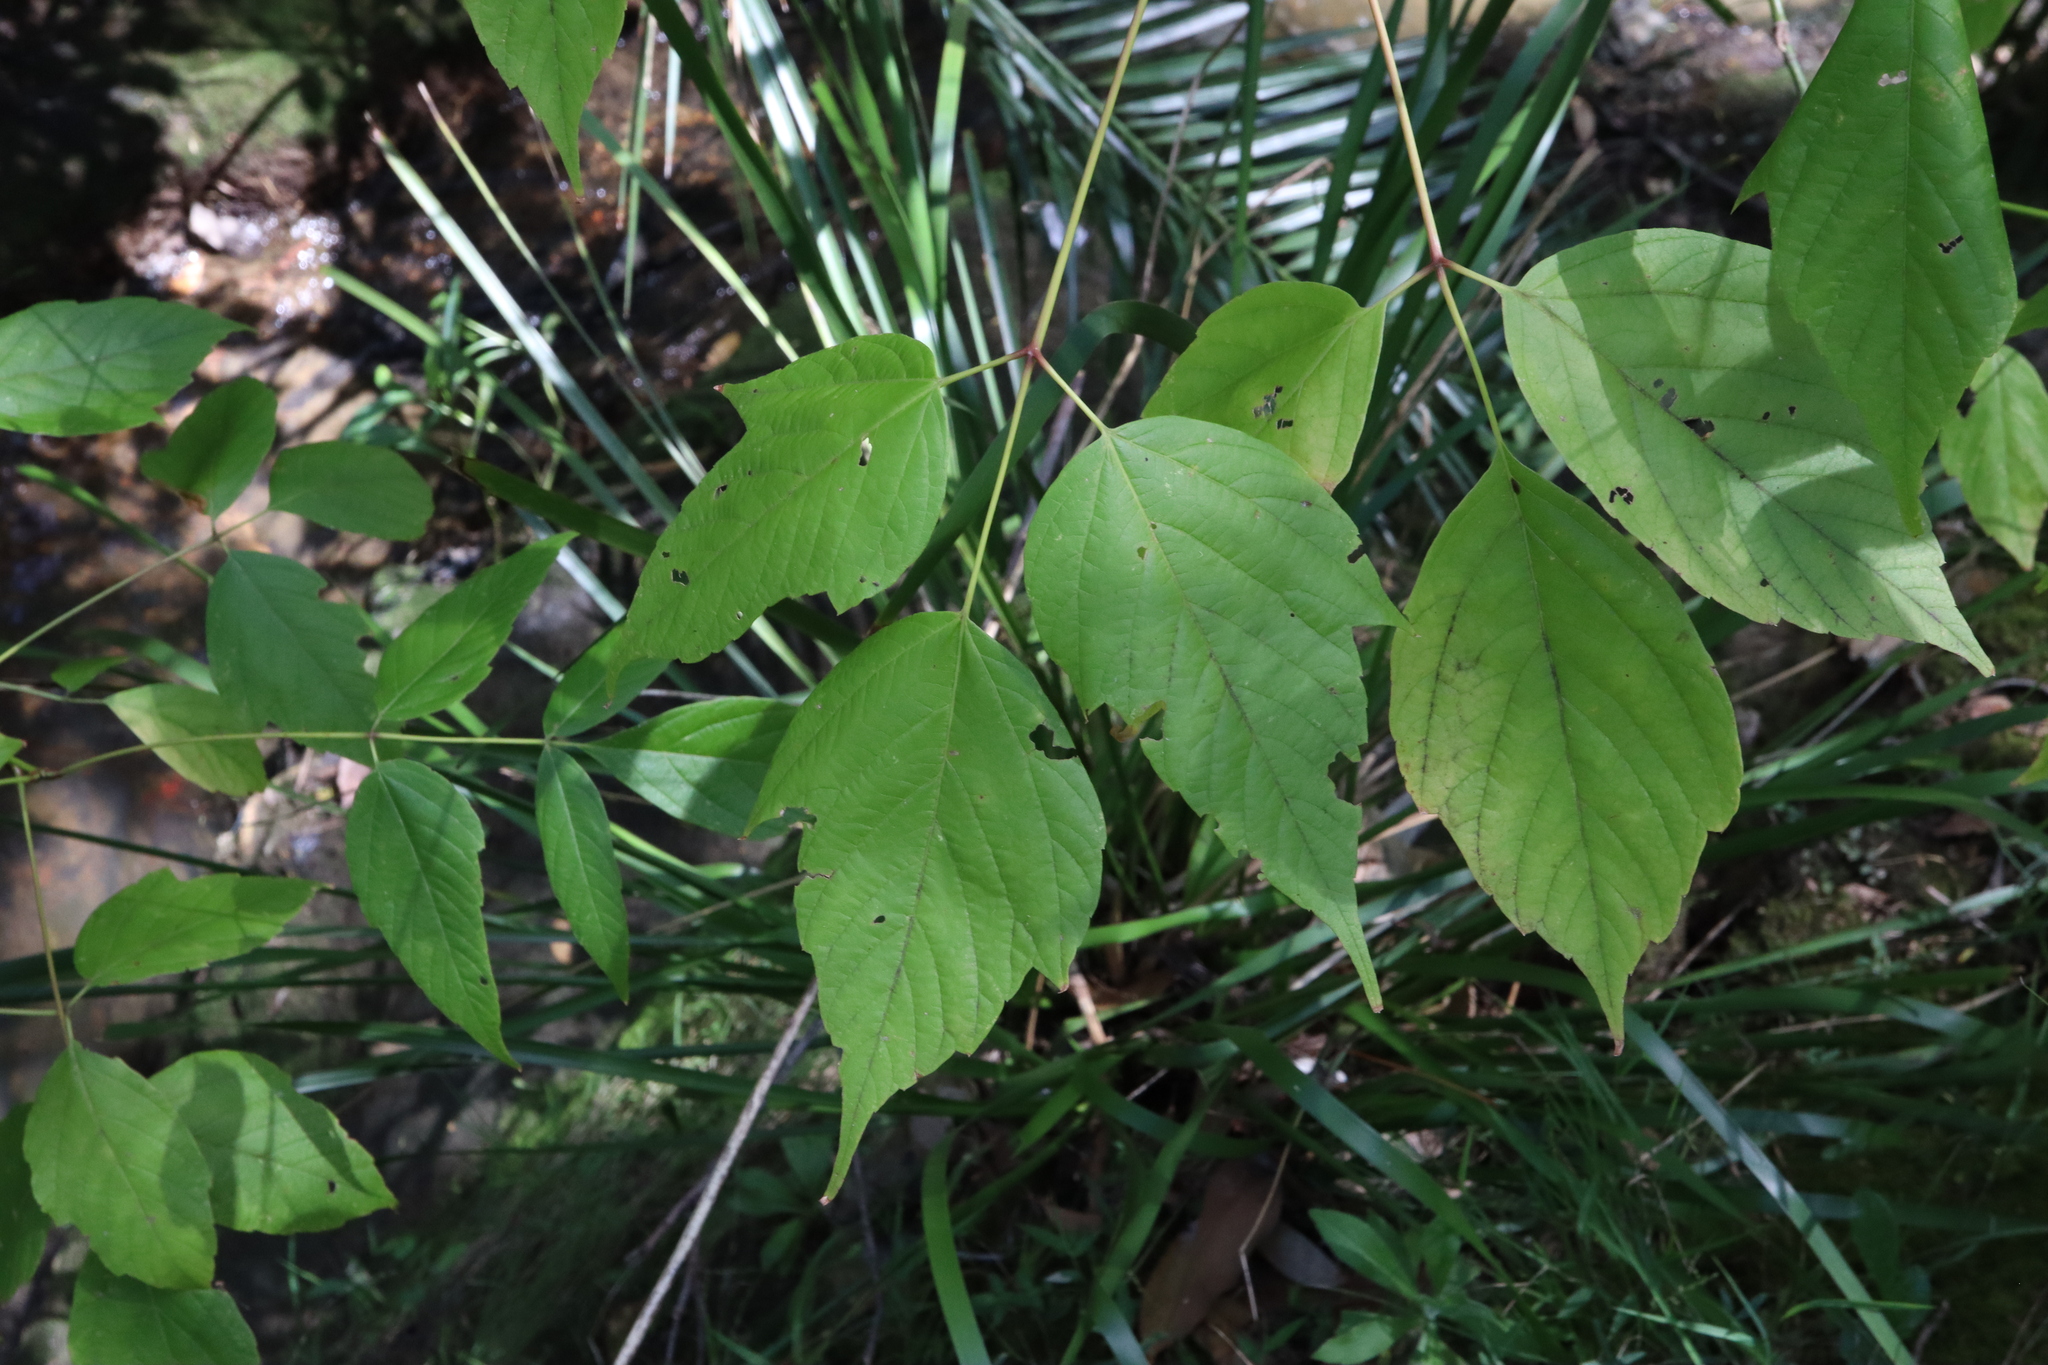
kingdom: Plantae
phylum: Tracheophyta
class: Magnoliopsida
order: Sapindales
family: Sapindaceae
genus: Acer
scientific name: Acer negundo
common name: Ashleaf maple
